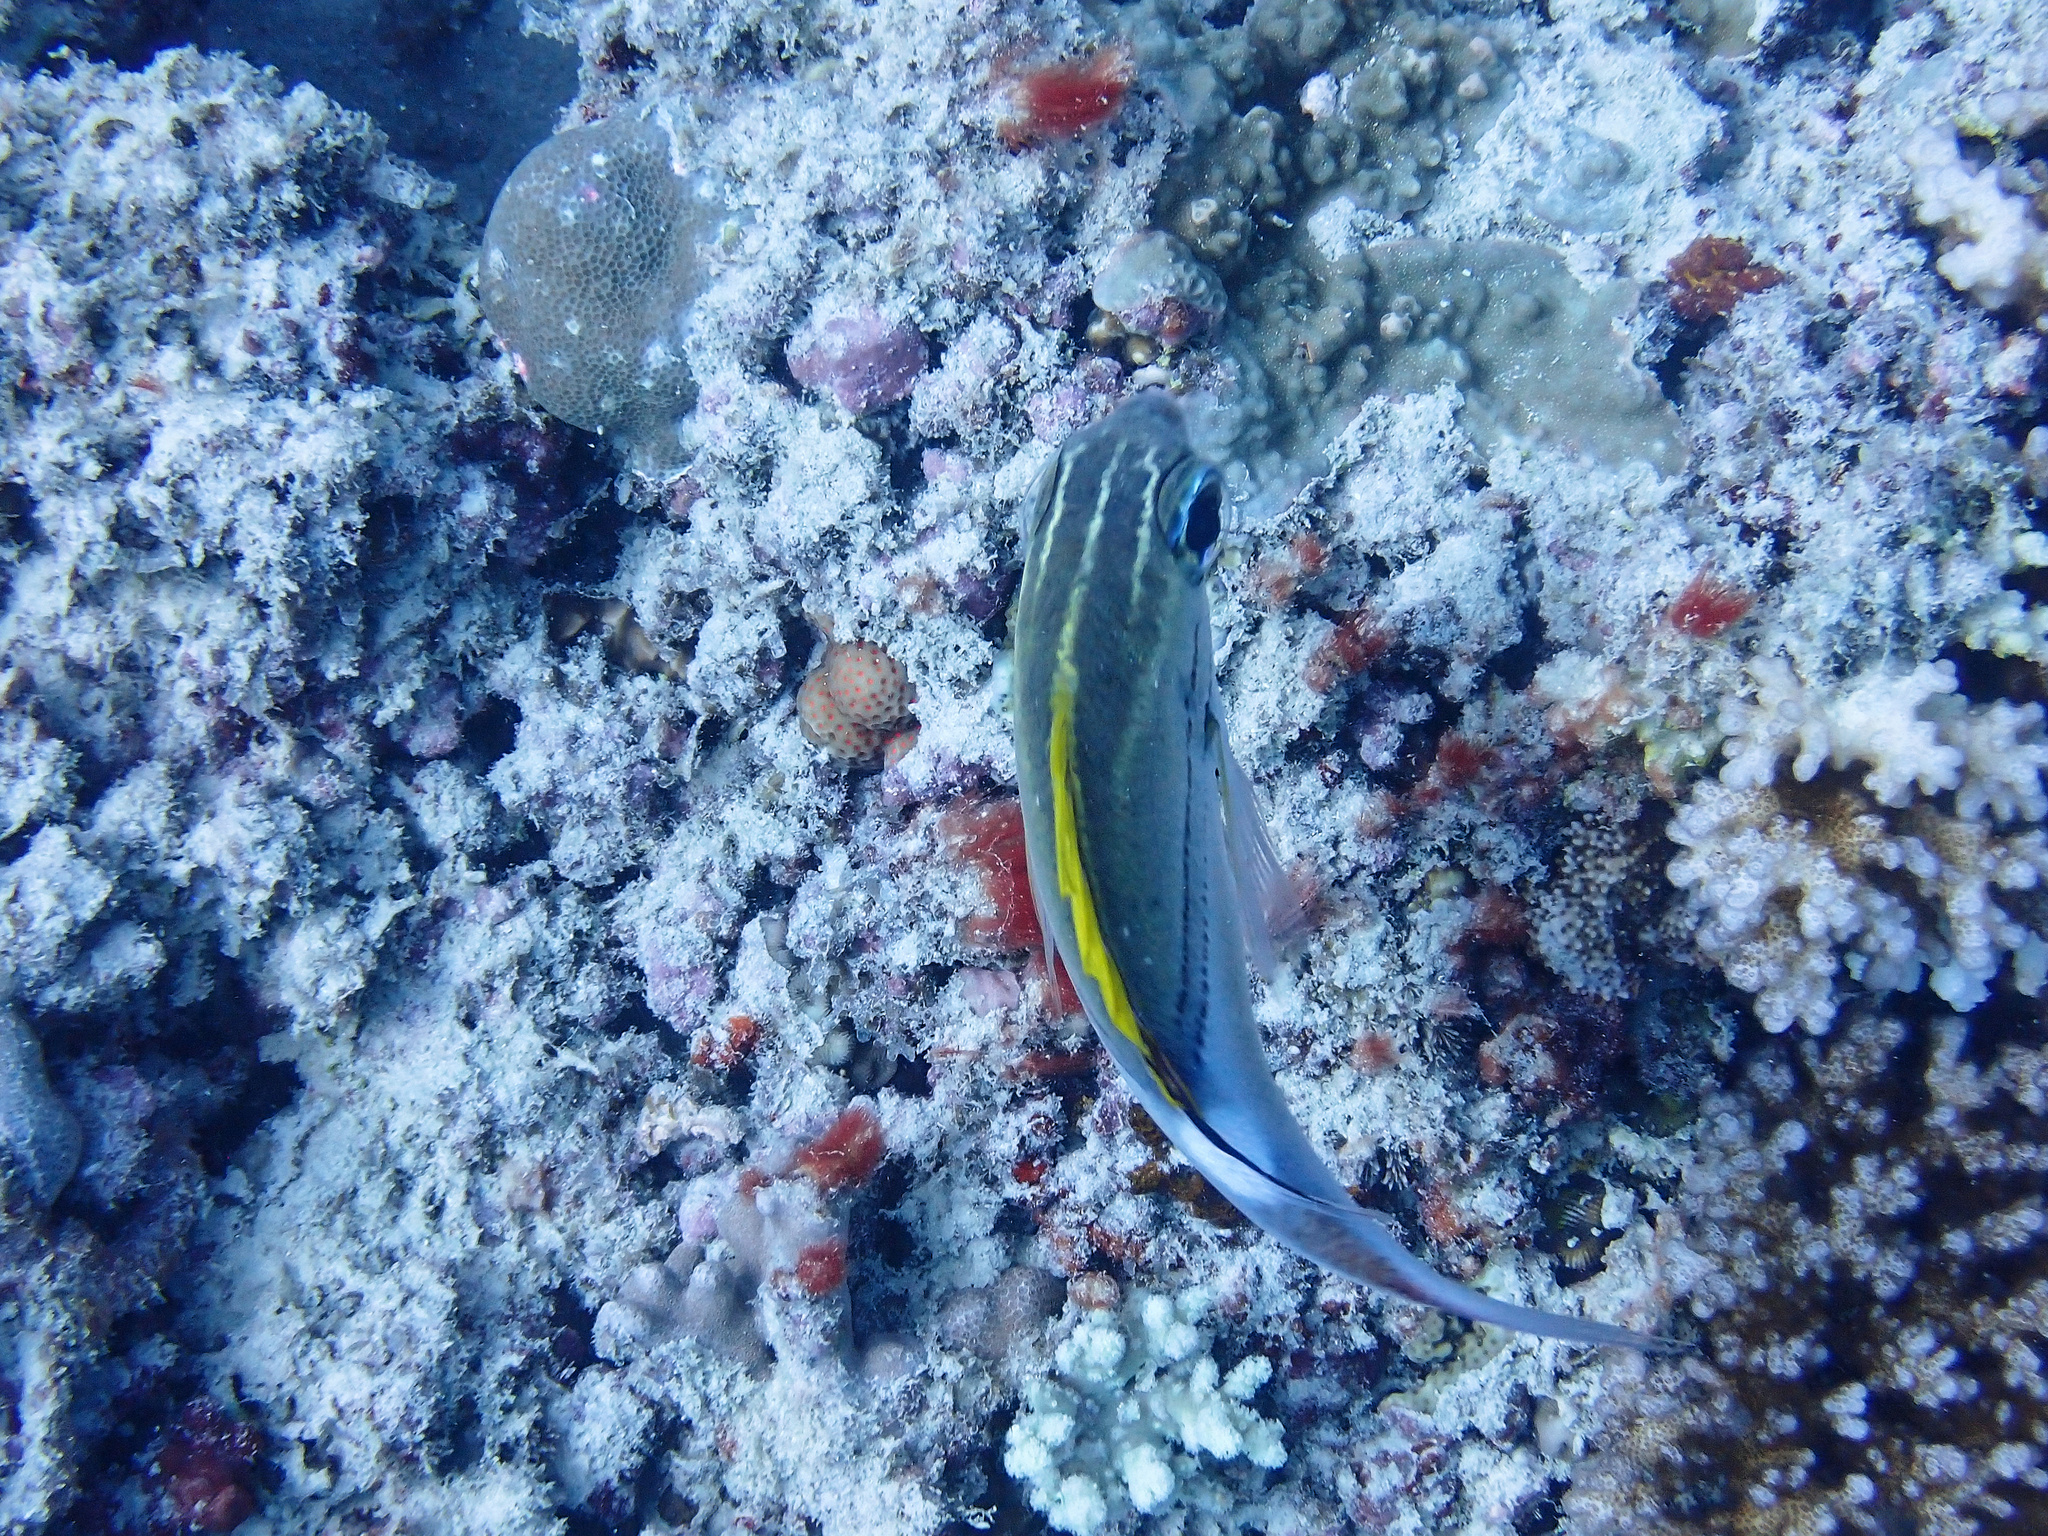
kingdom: Animalia
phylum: Chordata
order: Perciformes
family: Nemipteridae
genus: Scolopsis
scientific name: Scolopsis bilineata
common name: Two-lined monocle bream
